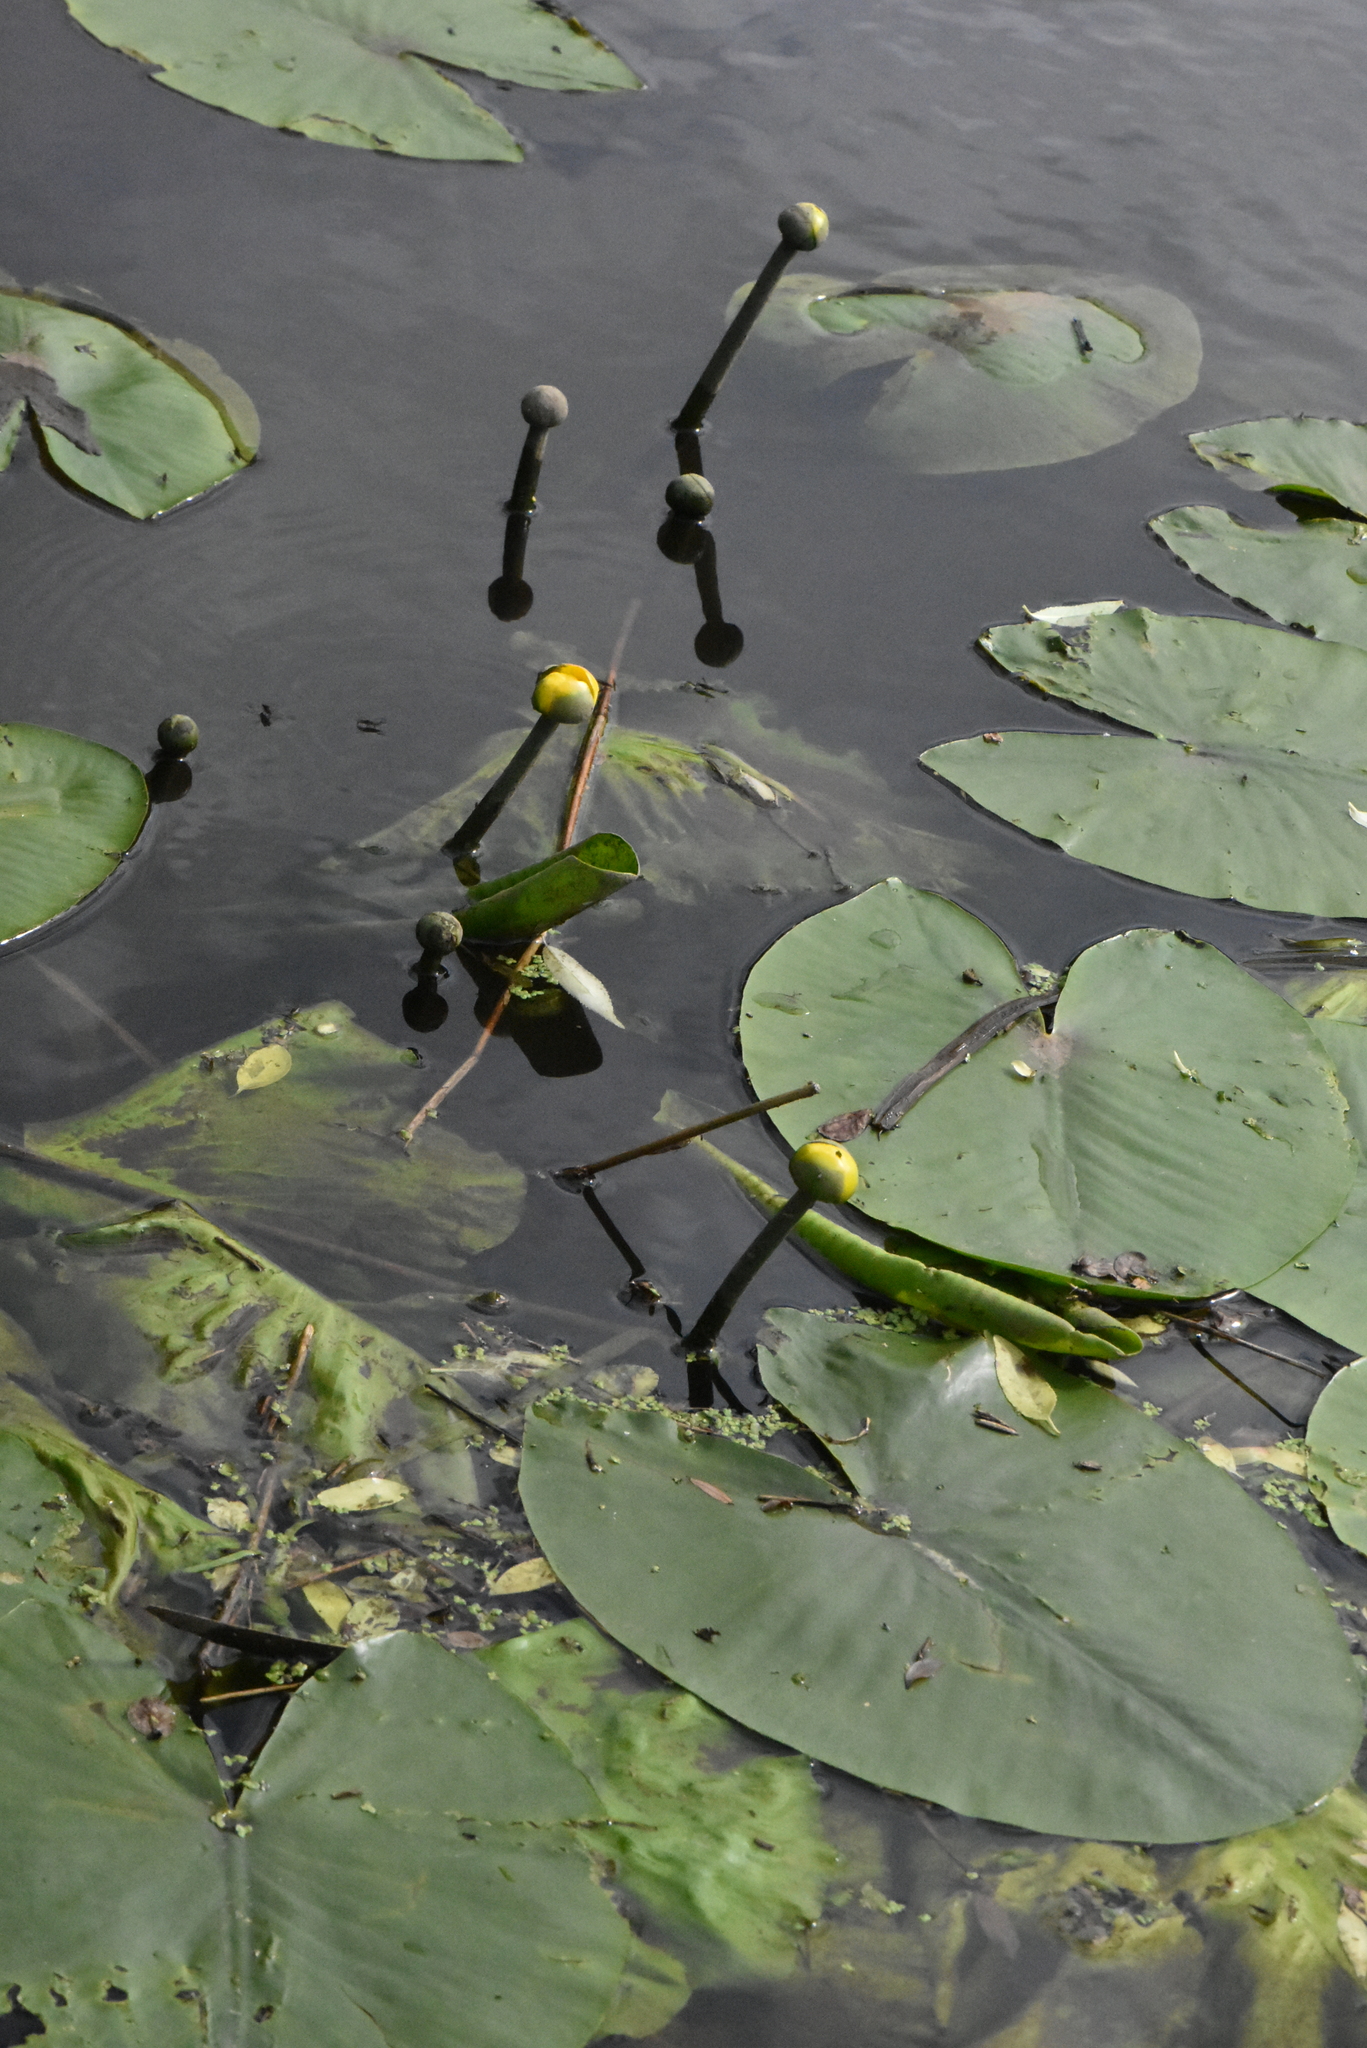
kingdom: Plantae
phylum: Tracheophyta
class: Magnoliopsida
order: Nymphaeales
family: Nymphaeaceae
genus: Nuphar
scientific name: Nuphar lutea
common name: Yellow water-lily
